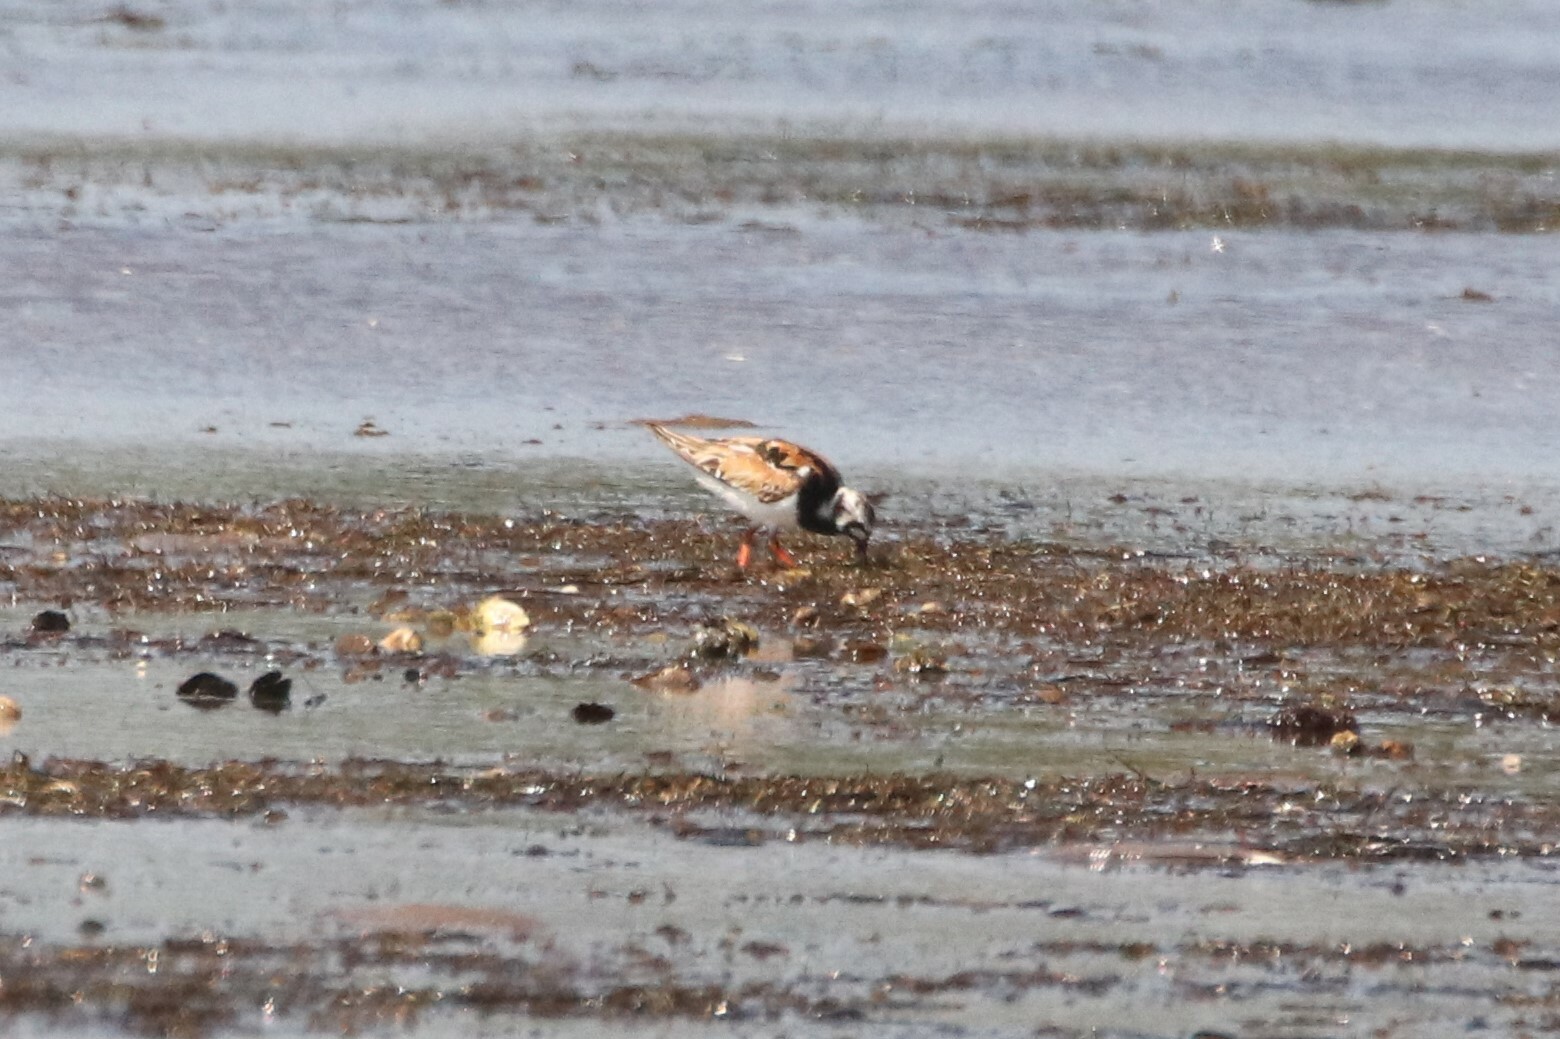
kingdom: Animalia
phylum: Chordata
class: Aves
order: Charadriiformes
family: Scolopacidae
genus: Arenaria
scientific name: Arenaria interpres
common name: Ruddy turnstone
